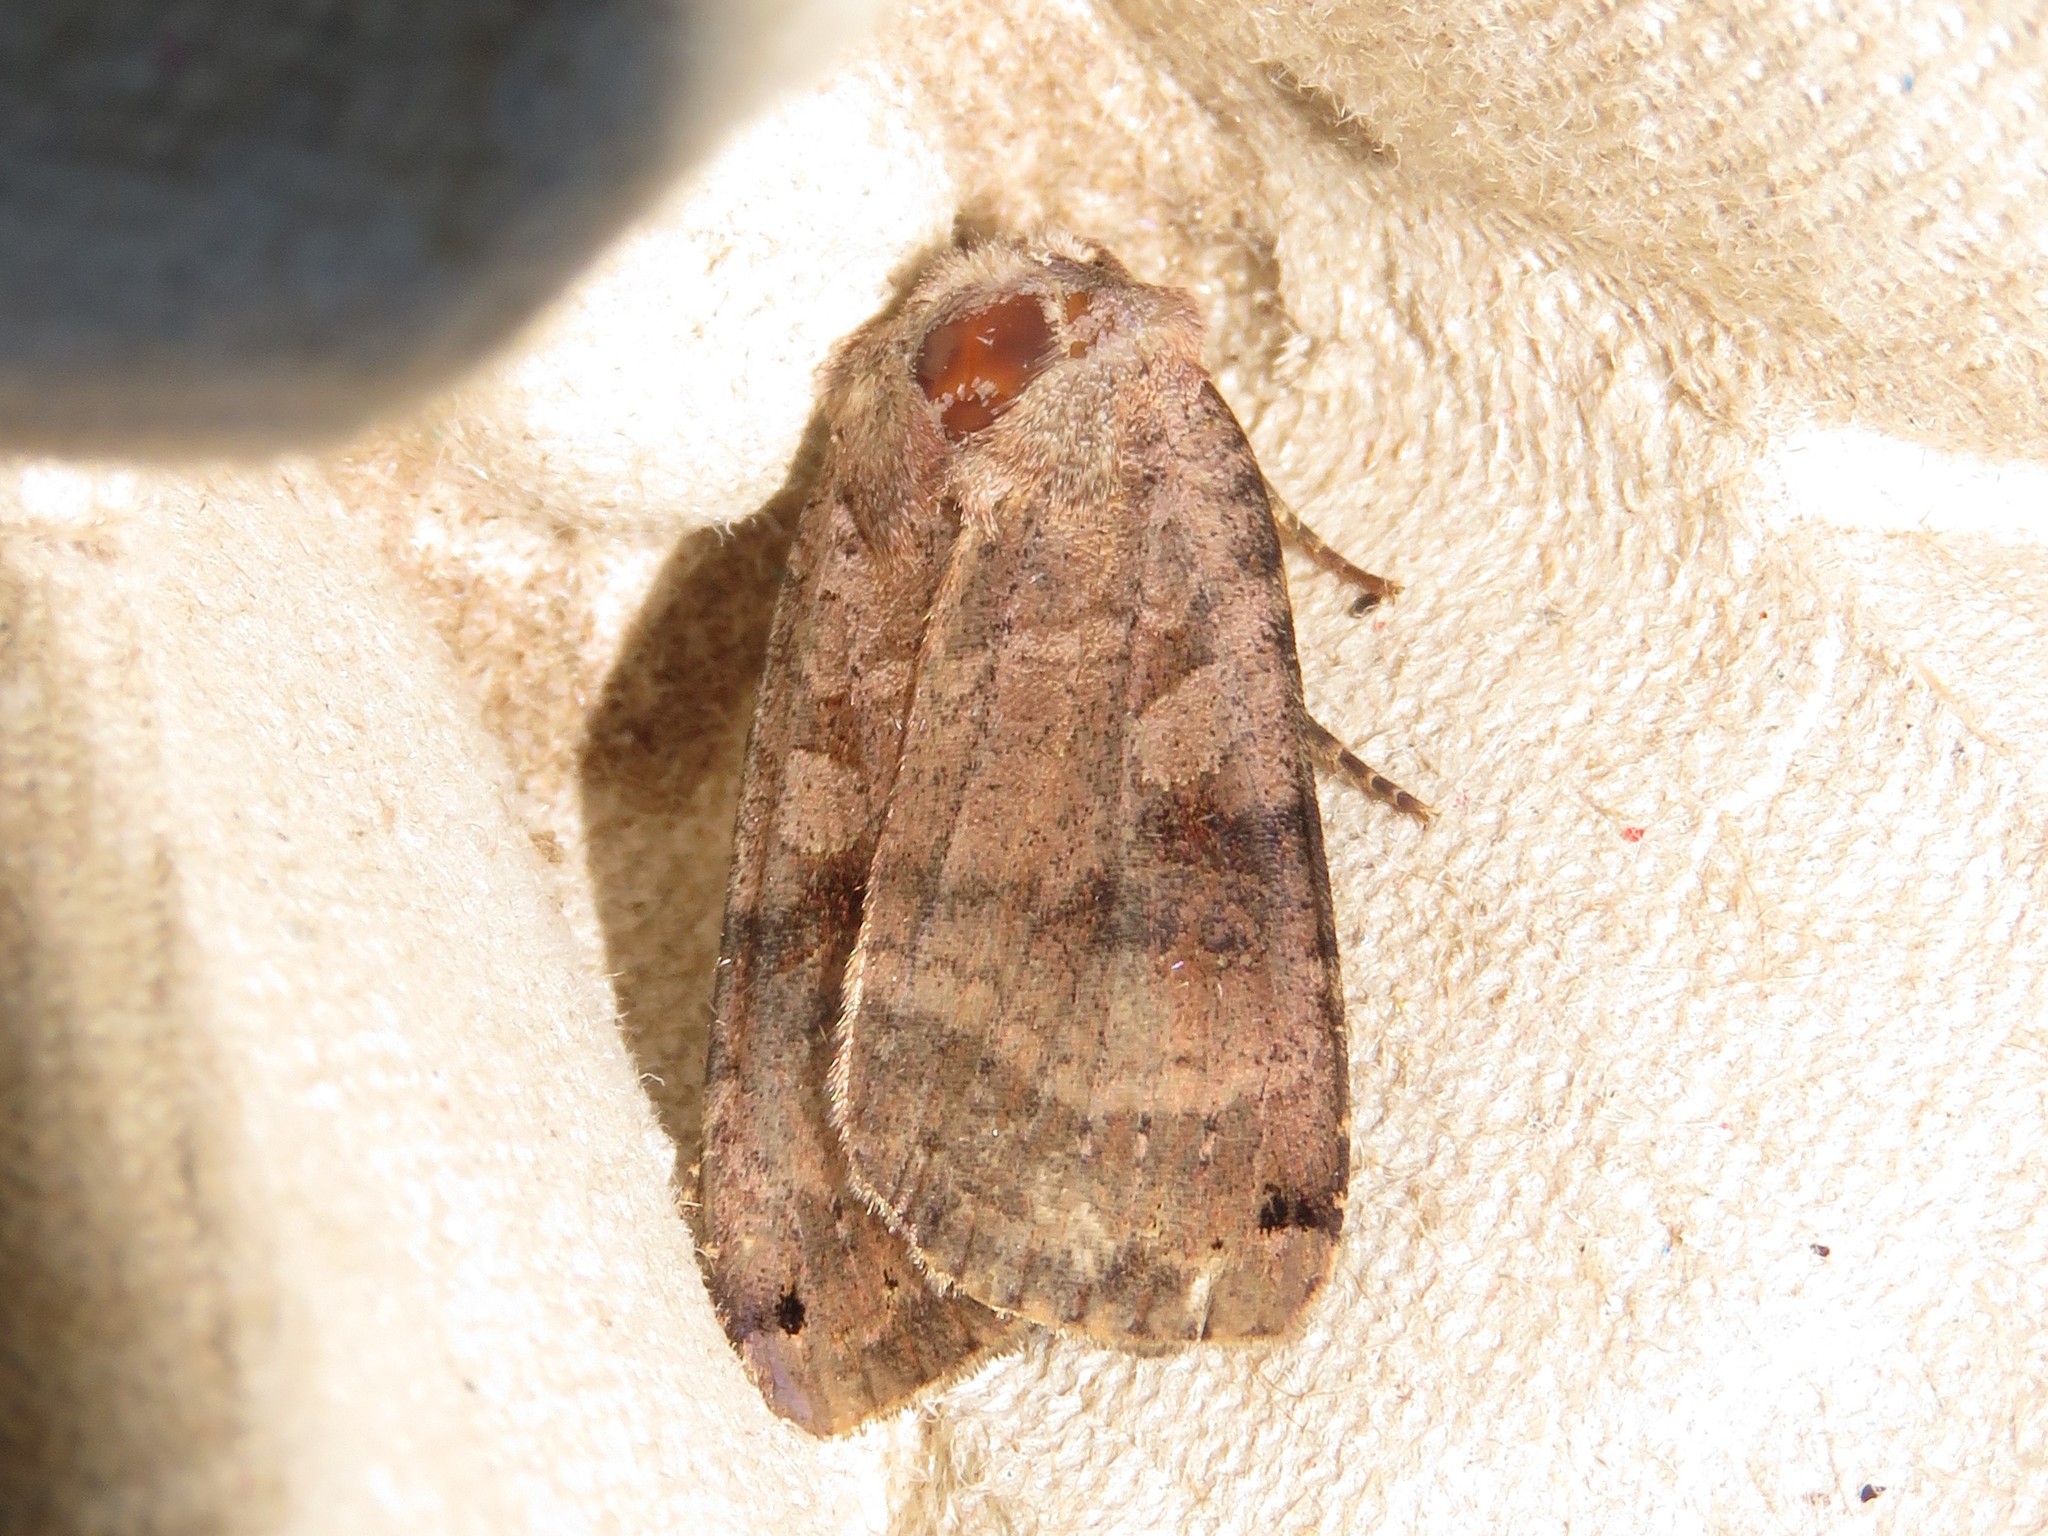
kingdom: Animalia
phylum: Arthropoda
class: Insecta
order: Lepidoptera
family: Noctuidae
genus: Xestia
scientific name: Xestia smithii
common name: Smith's dart
